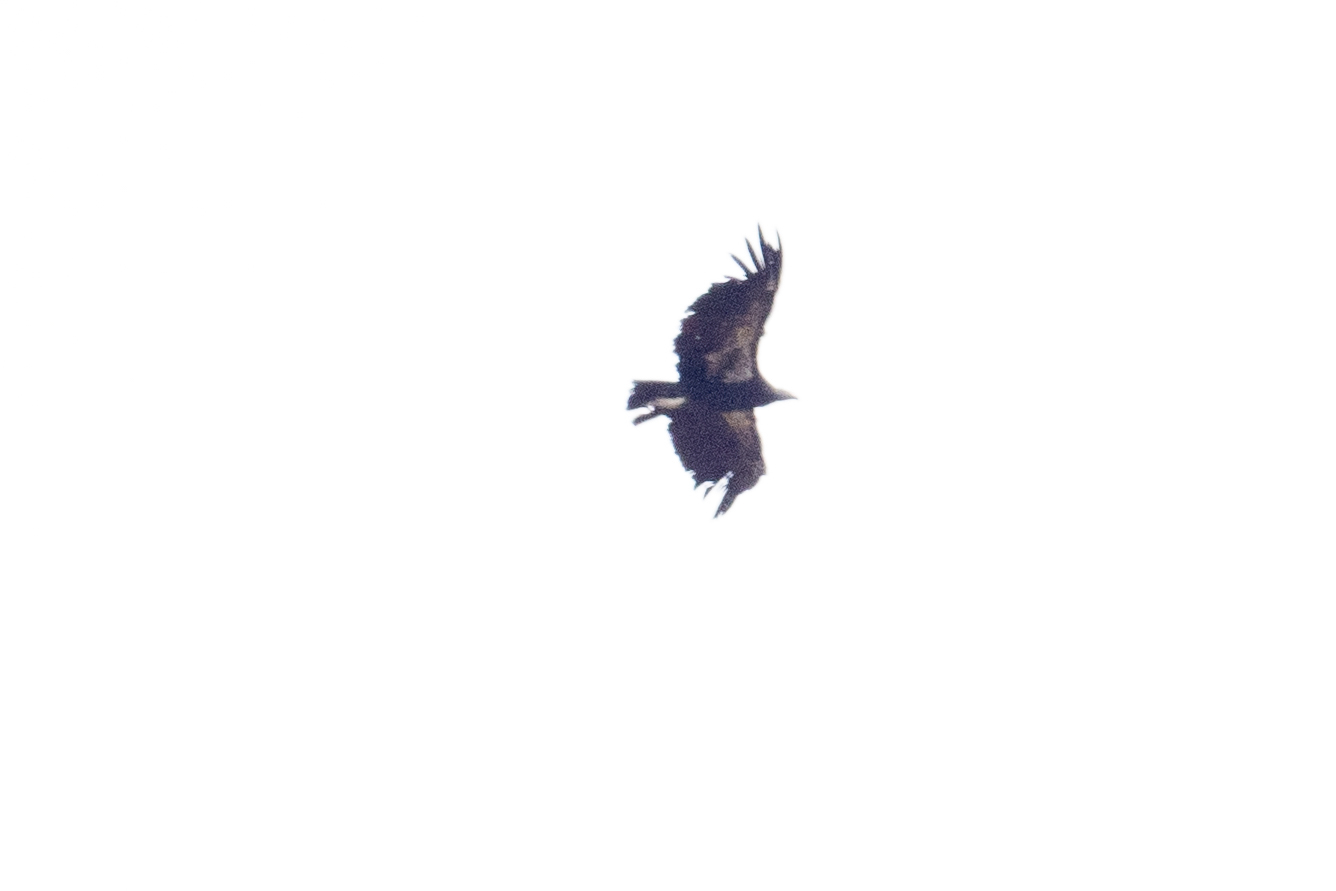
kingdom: Animalia
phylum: Chordata
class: Aves
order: Accipitriformes
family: Cathartidae
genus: Gymnogyps
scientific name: Gymnogyps californianus
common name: California condor
